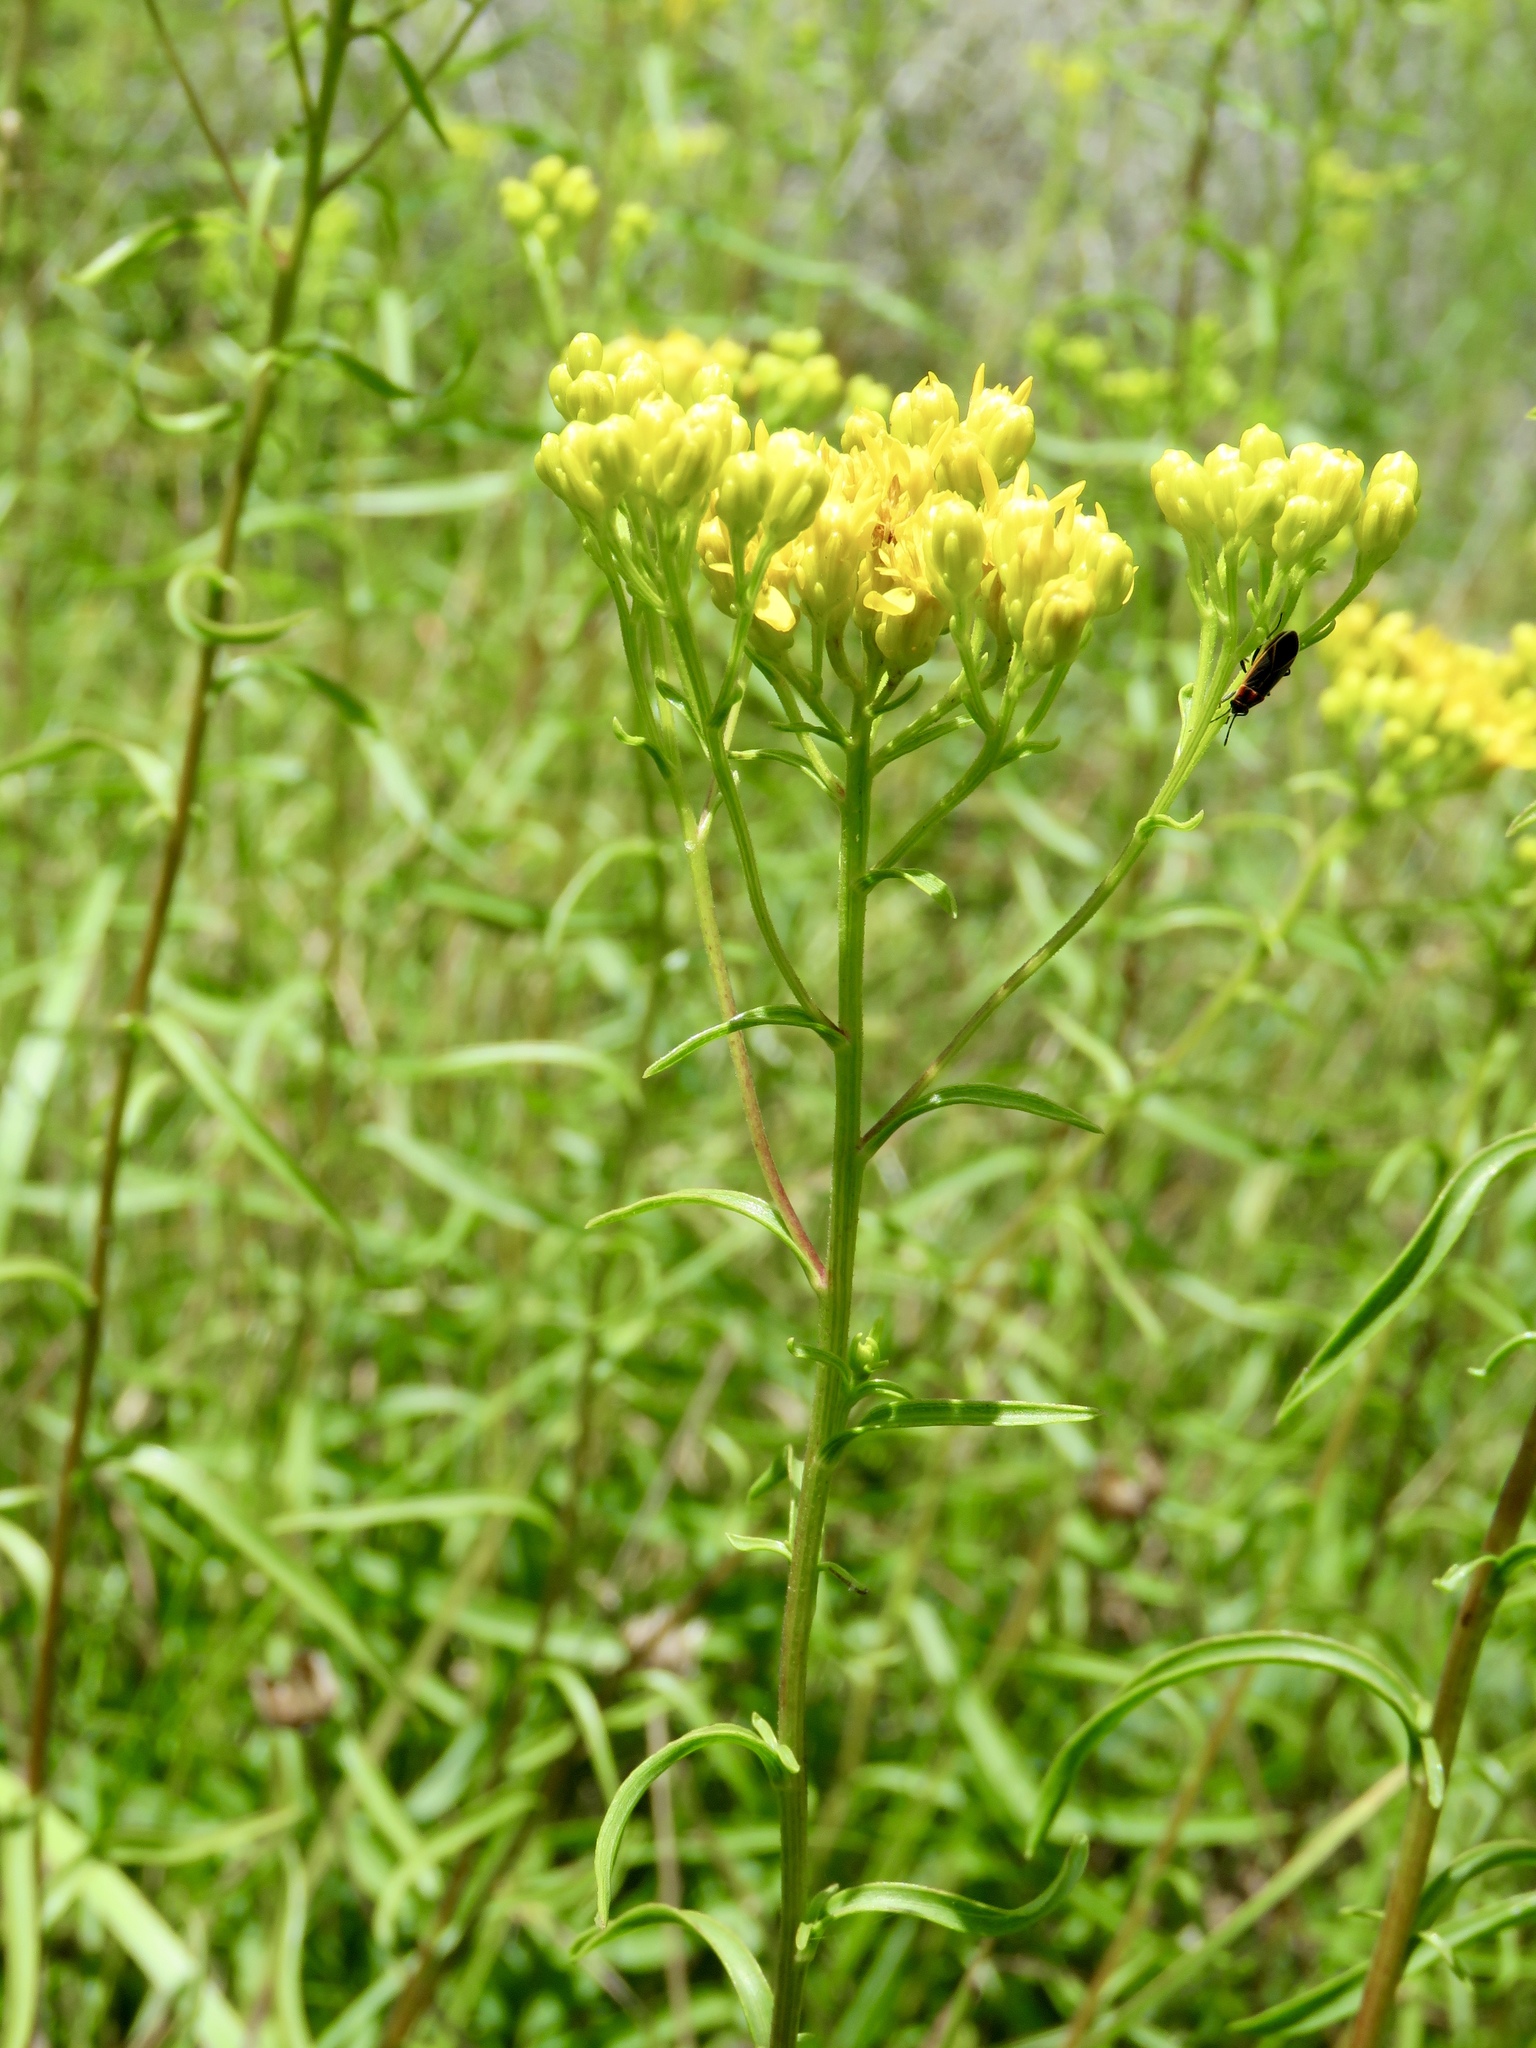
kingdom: Plantae
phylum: Tracheophyta
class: Magnoliopsida
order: Asterales
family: Asteraceae
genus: Solidago
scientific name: Solidago nitida
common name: Shiny goldenrod
